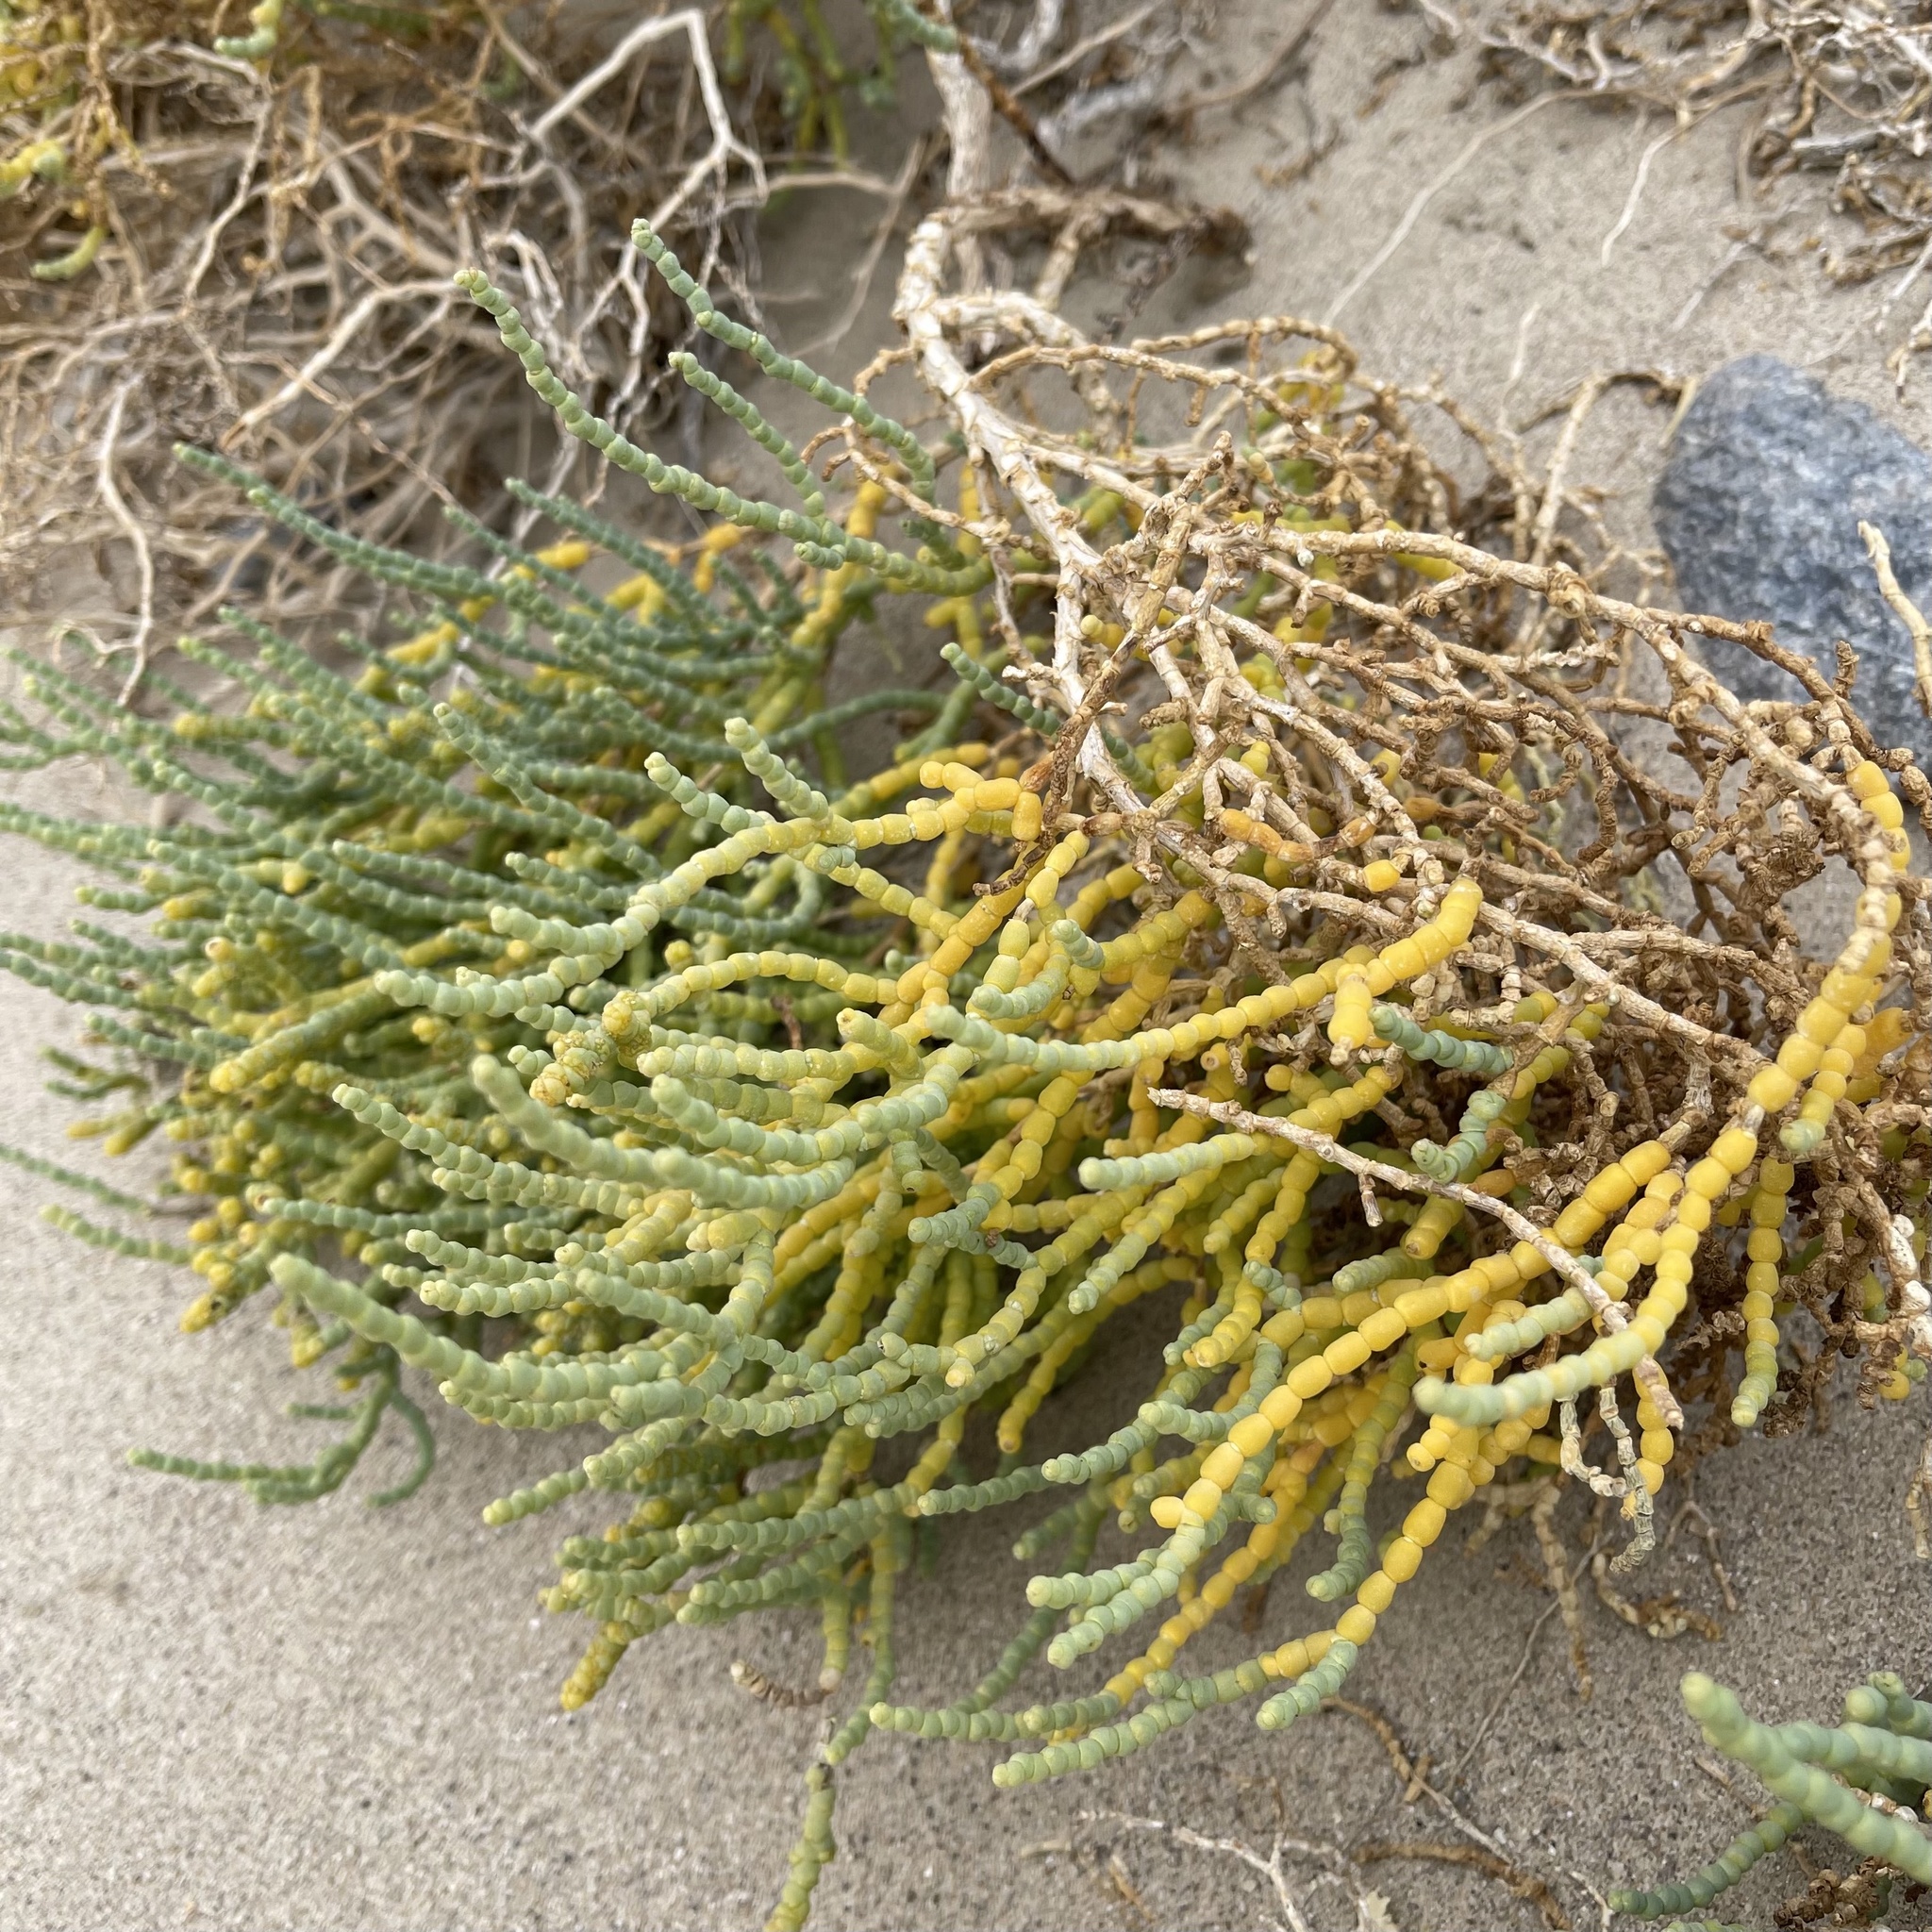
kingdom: Plantae
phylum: Tracheophyta
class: Magnoliopsida
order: Caryophyllales
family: Amaranthaceae
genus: Allenrolfea
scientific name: Allenrolfea occidentalis
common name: Iodine-bush
